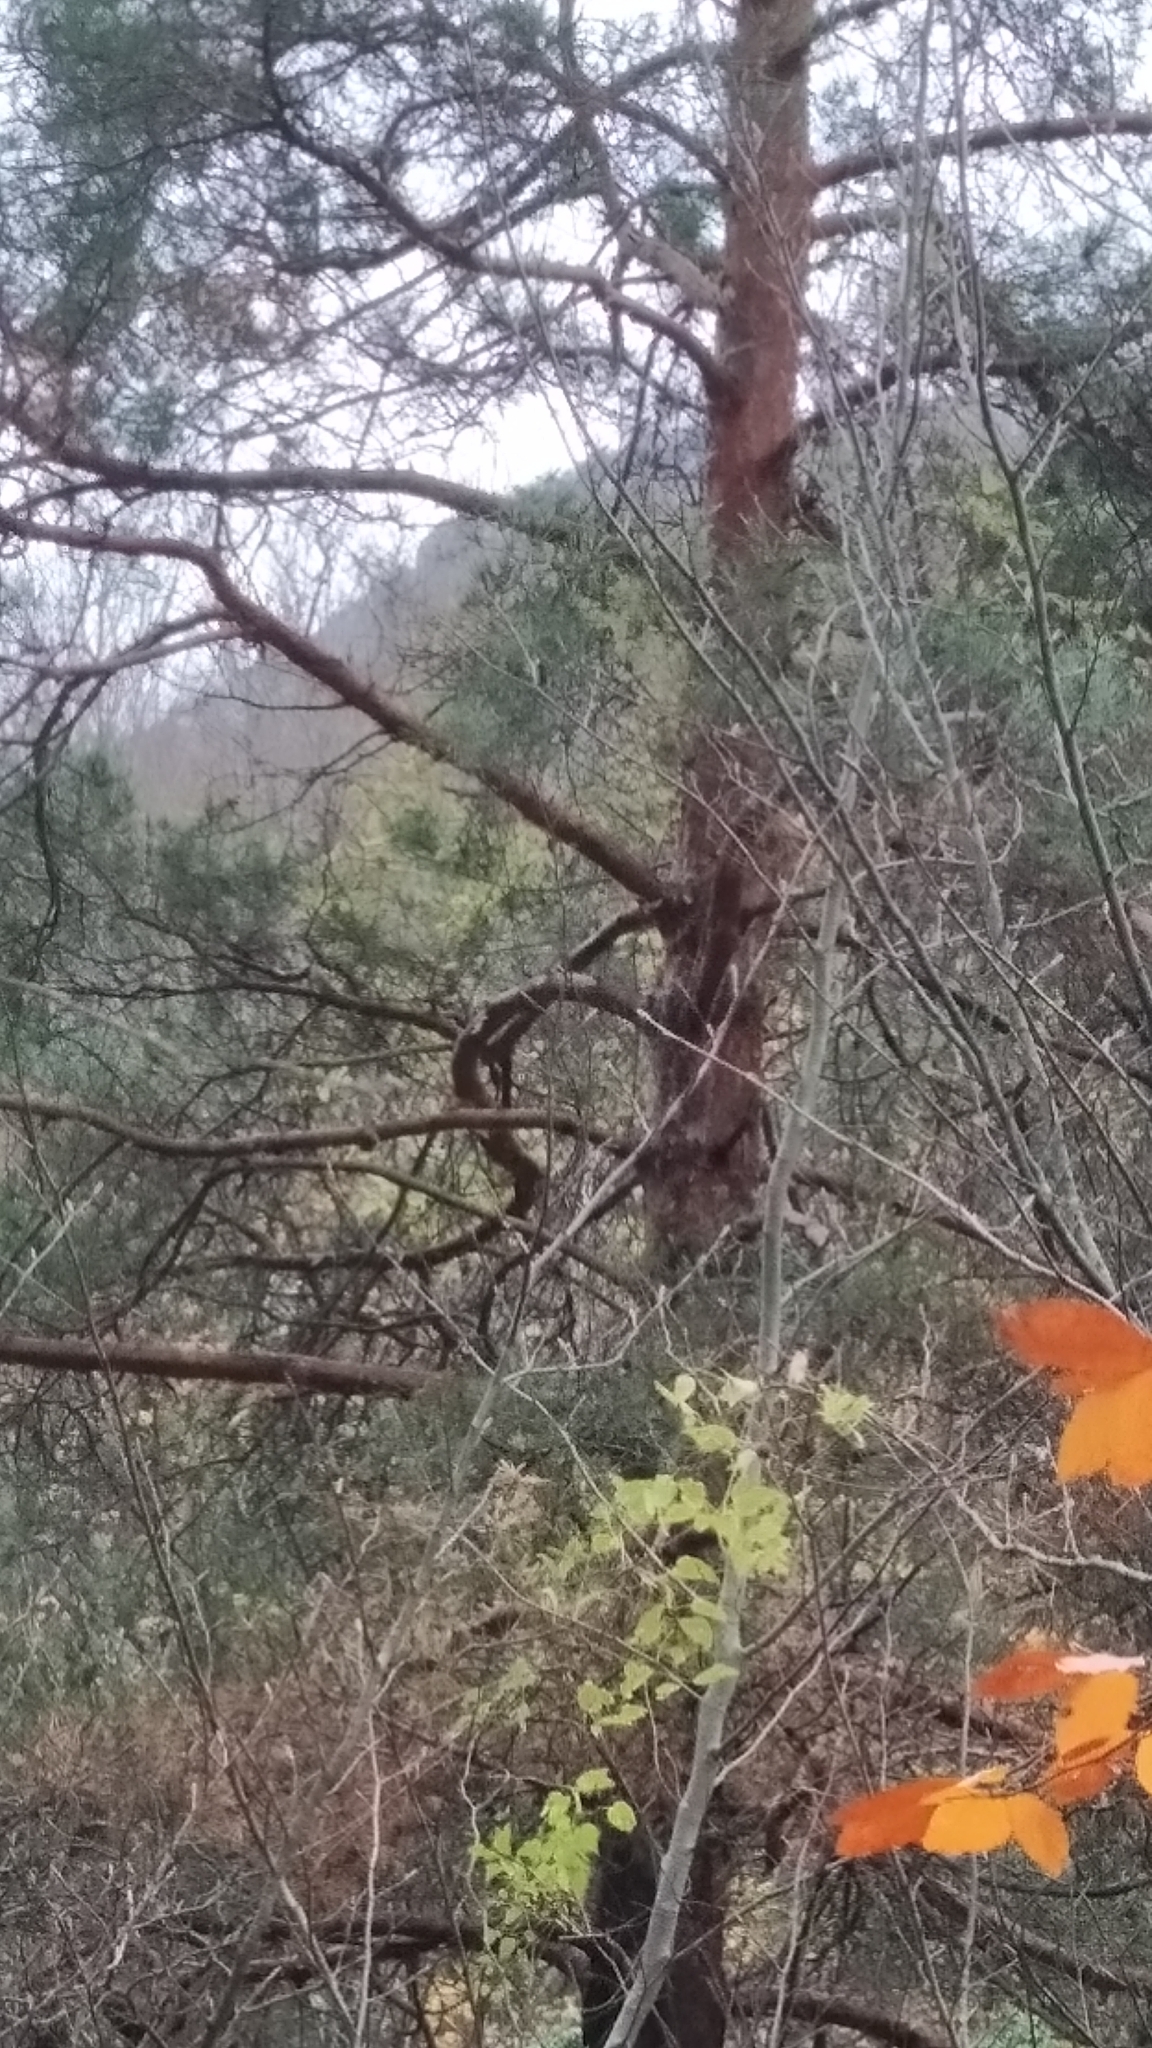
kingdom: Plantae
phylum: Tracheophyta
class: Pinopsida
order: Pinales
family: Pinaceae
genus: Pinus
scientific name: Pinus sylvestris
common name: Scots pine
